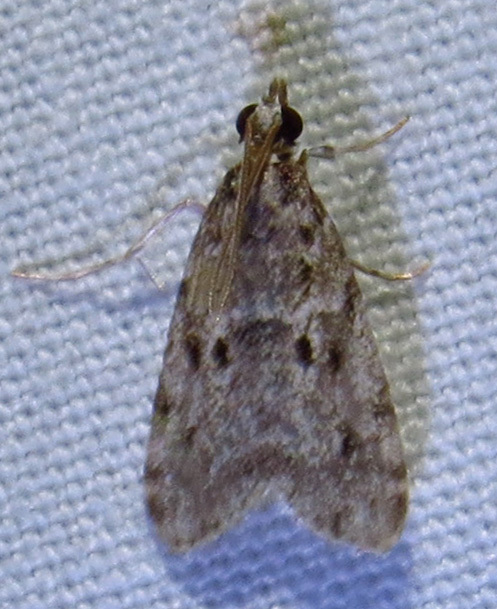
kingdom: Animalia
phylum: Arthropoda
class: Insecta
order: Lepidoptera
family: Crambidae
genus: Eudonia
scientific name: Eudonia heterosalis
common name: Mcdunnough's eudonia
